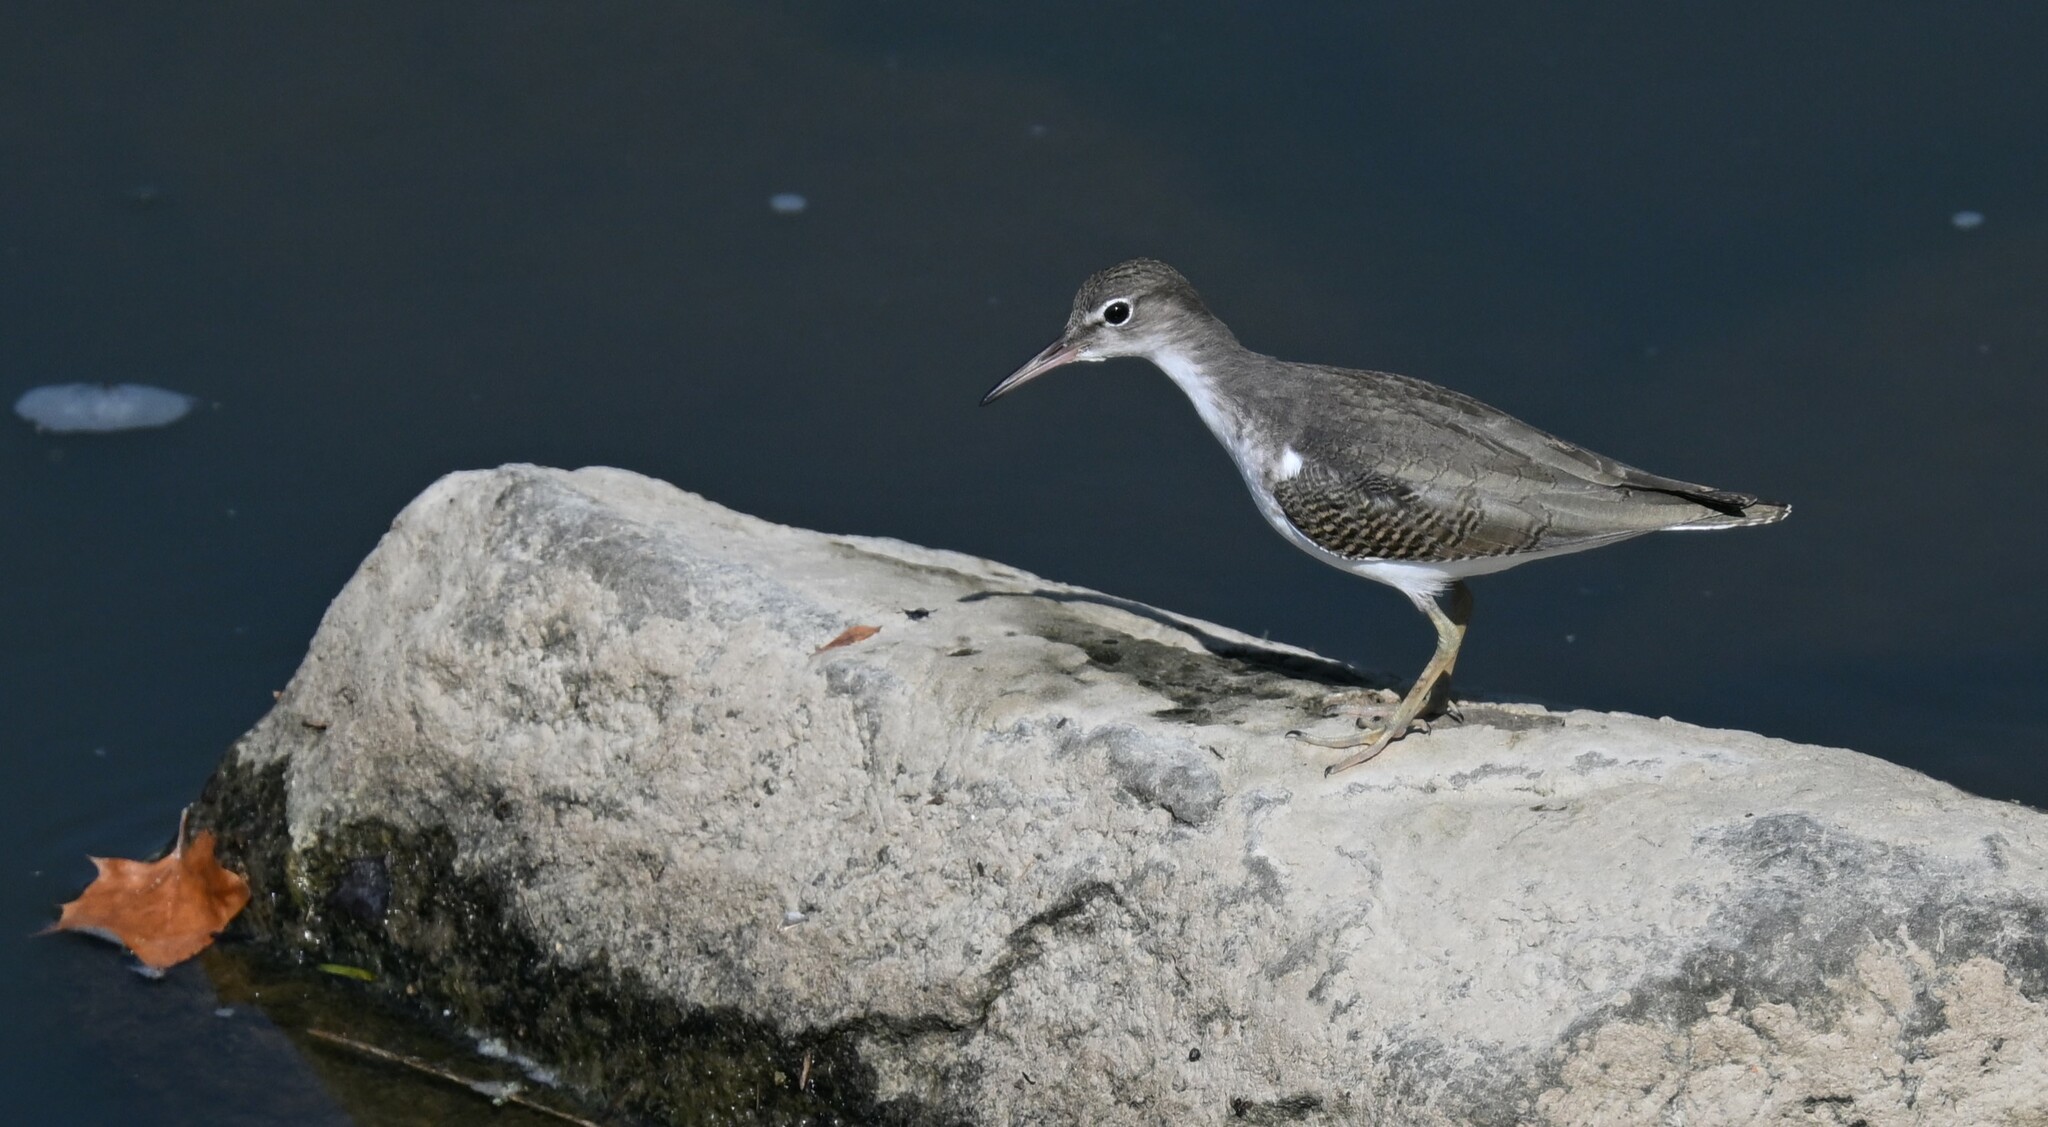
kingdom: Animalia
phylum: Chordata
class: Aves
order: Charadriiformes
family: Scolopacidae
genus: Actitis
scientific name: Actitis macularius
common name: Spotted sandpiper
